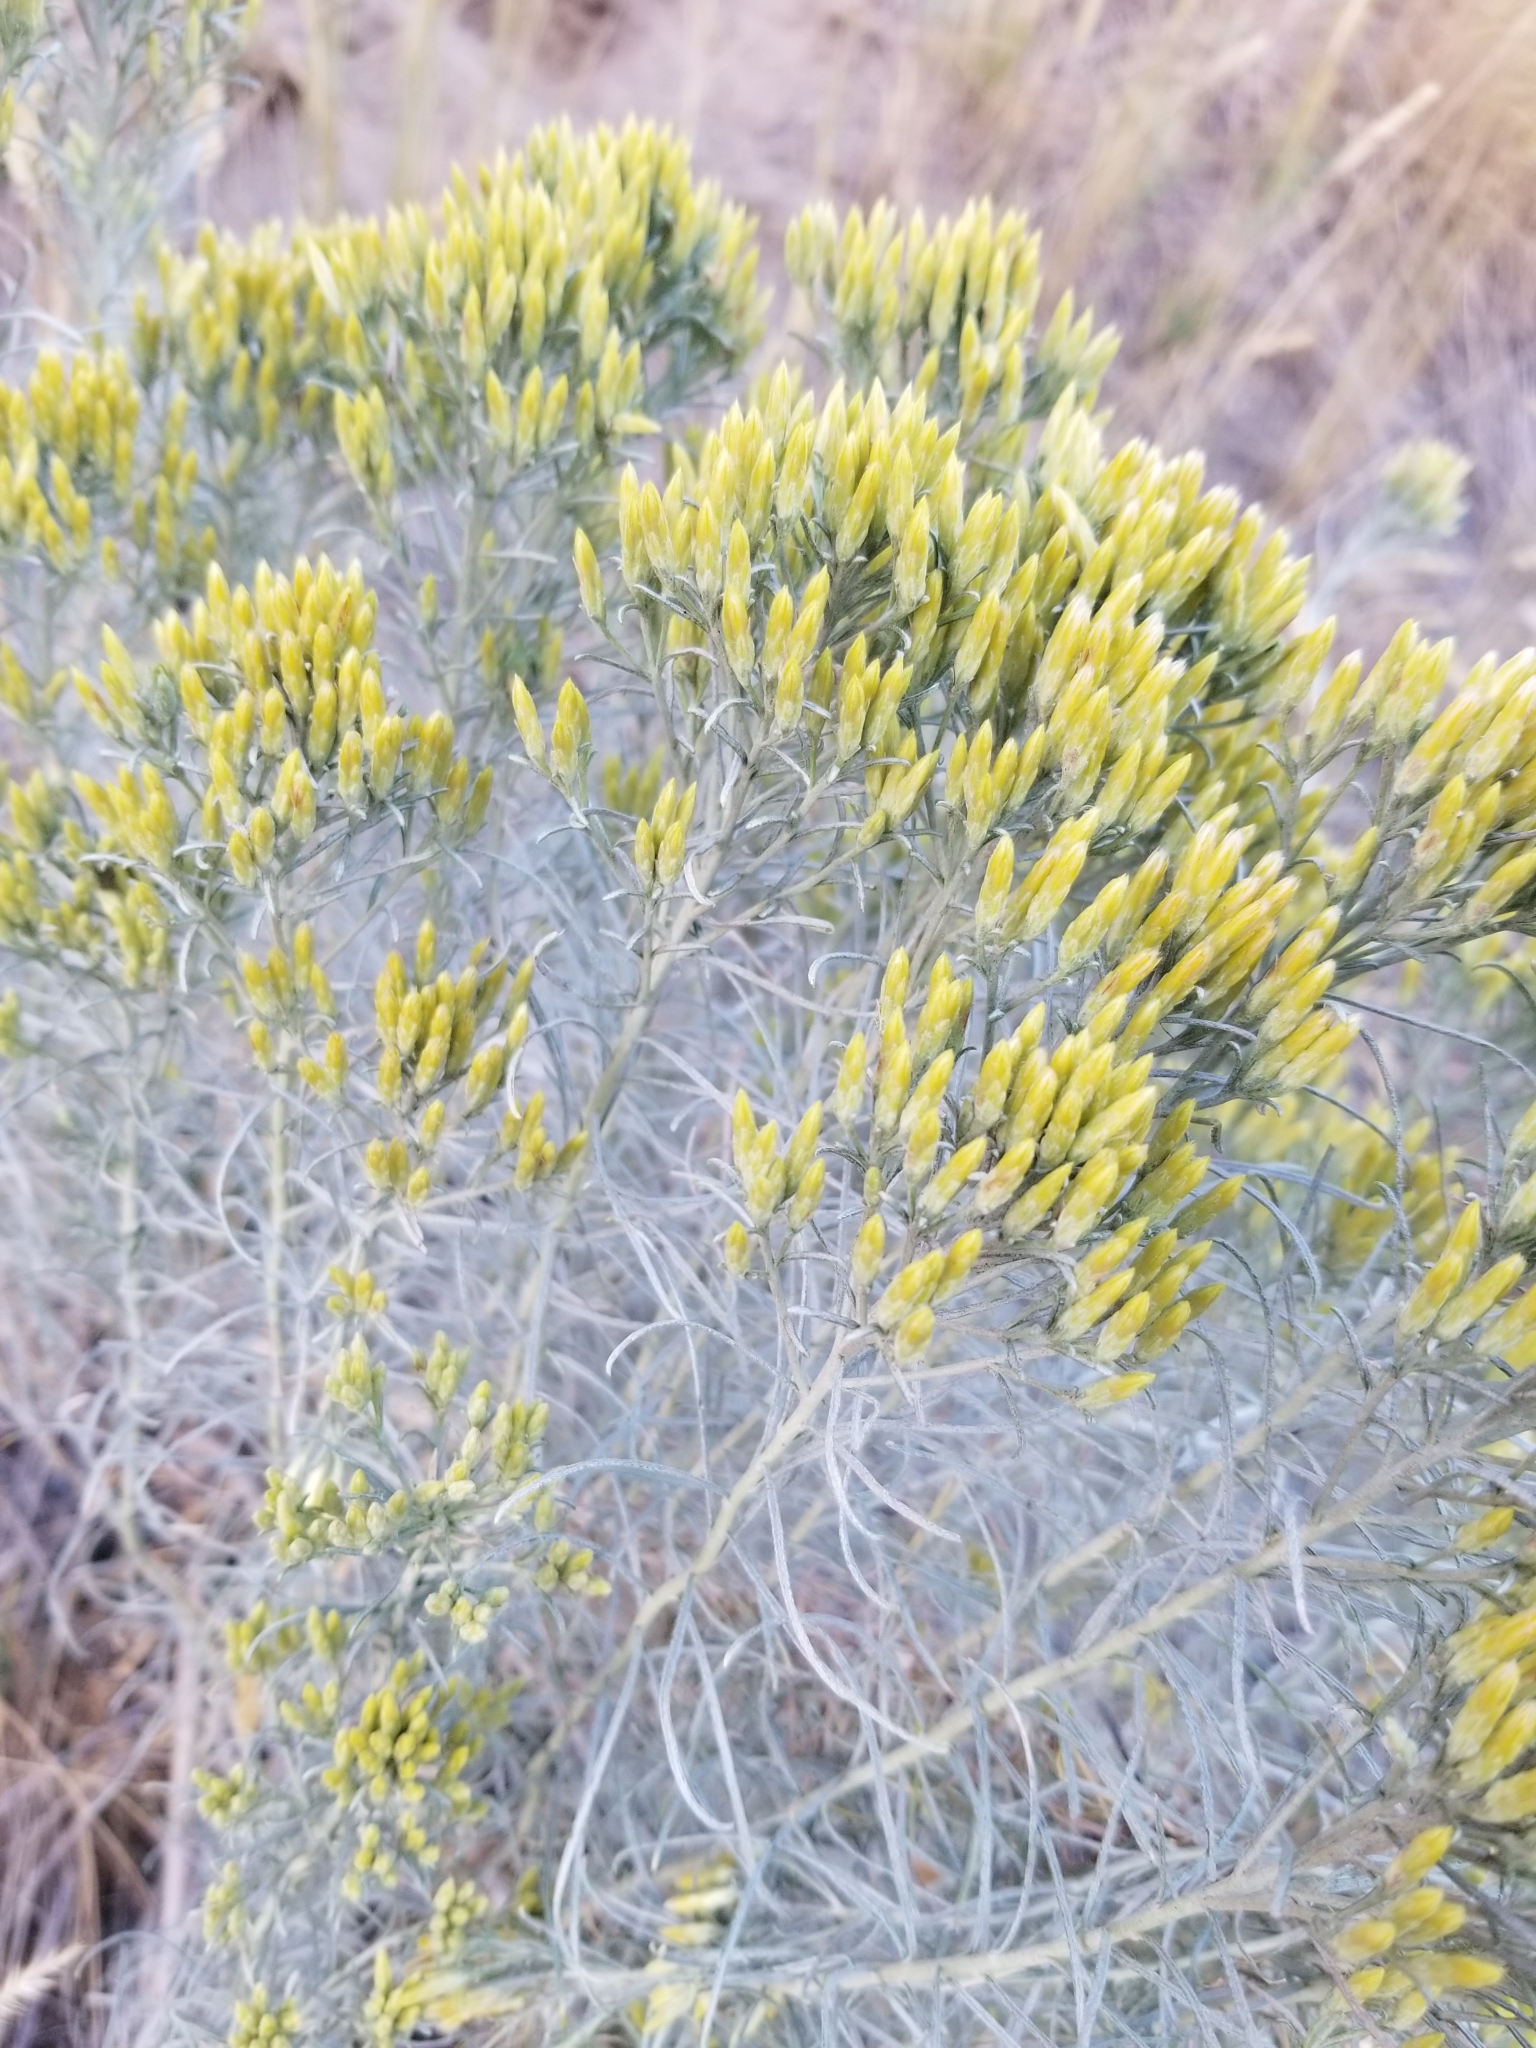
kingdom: Plantae
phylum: Tracheophyta
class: Magnoliopsida
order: Asterales
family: Asteraceae
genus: Ericameria
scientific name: Ericameria nauseosa
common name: Rubber rabbitbrush
